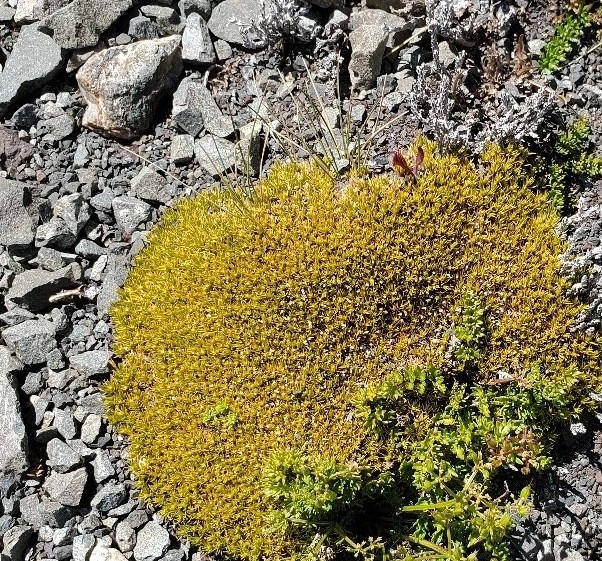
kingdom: Plantae
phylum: Tracheophyta
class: Magnoliopsida
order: Caryophyllales
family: Caryophyllaceae
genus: Scleranthus
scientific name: Scleranthus uniflorus
